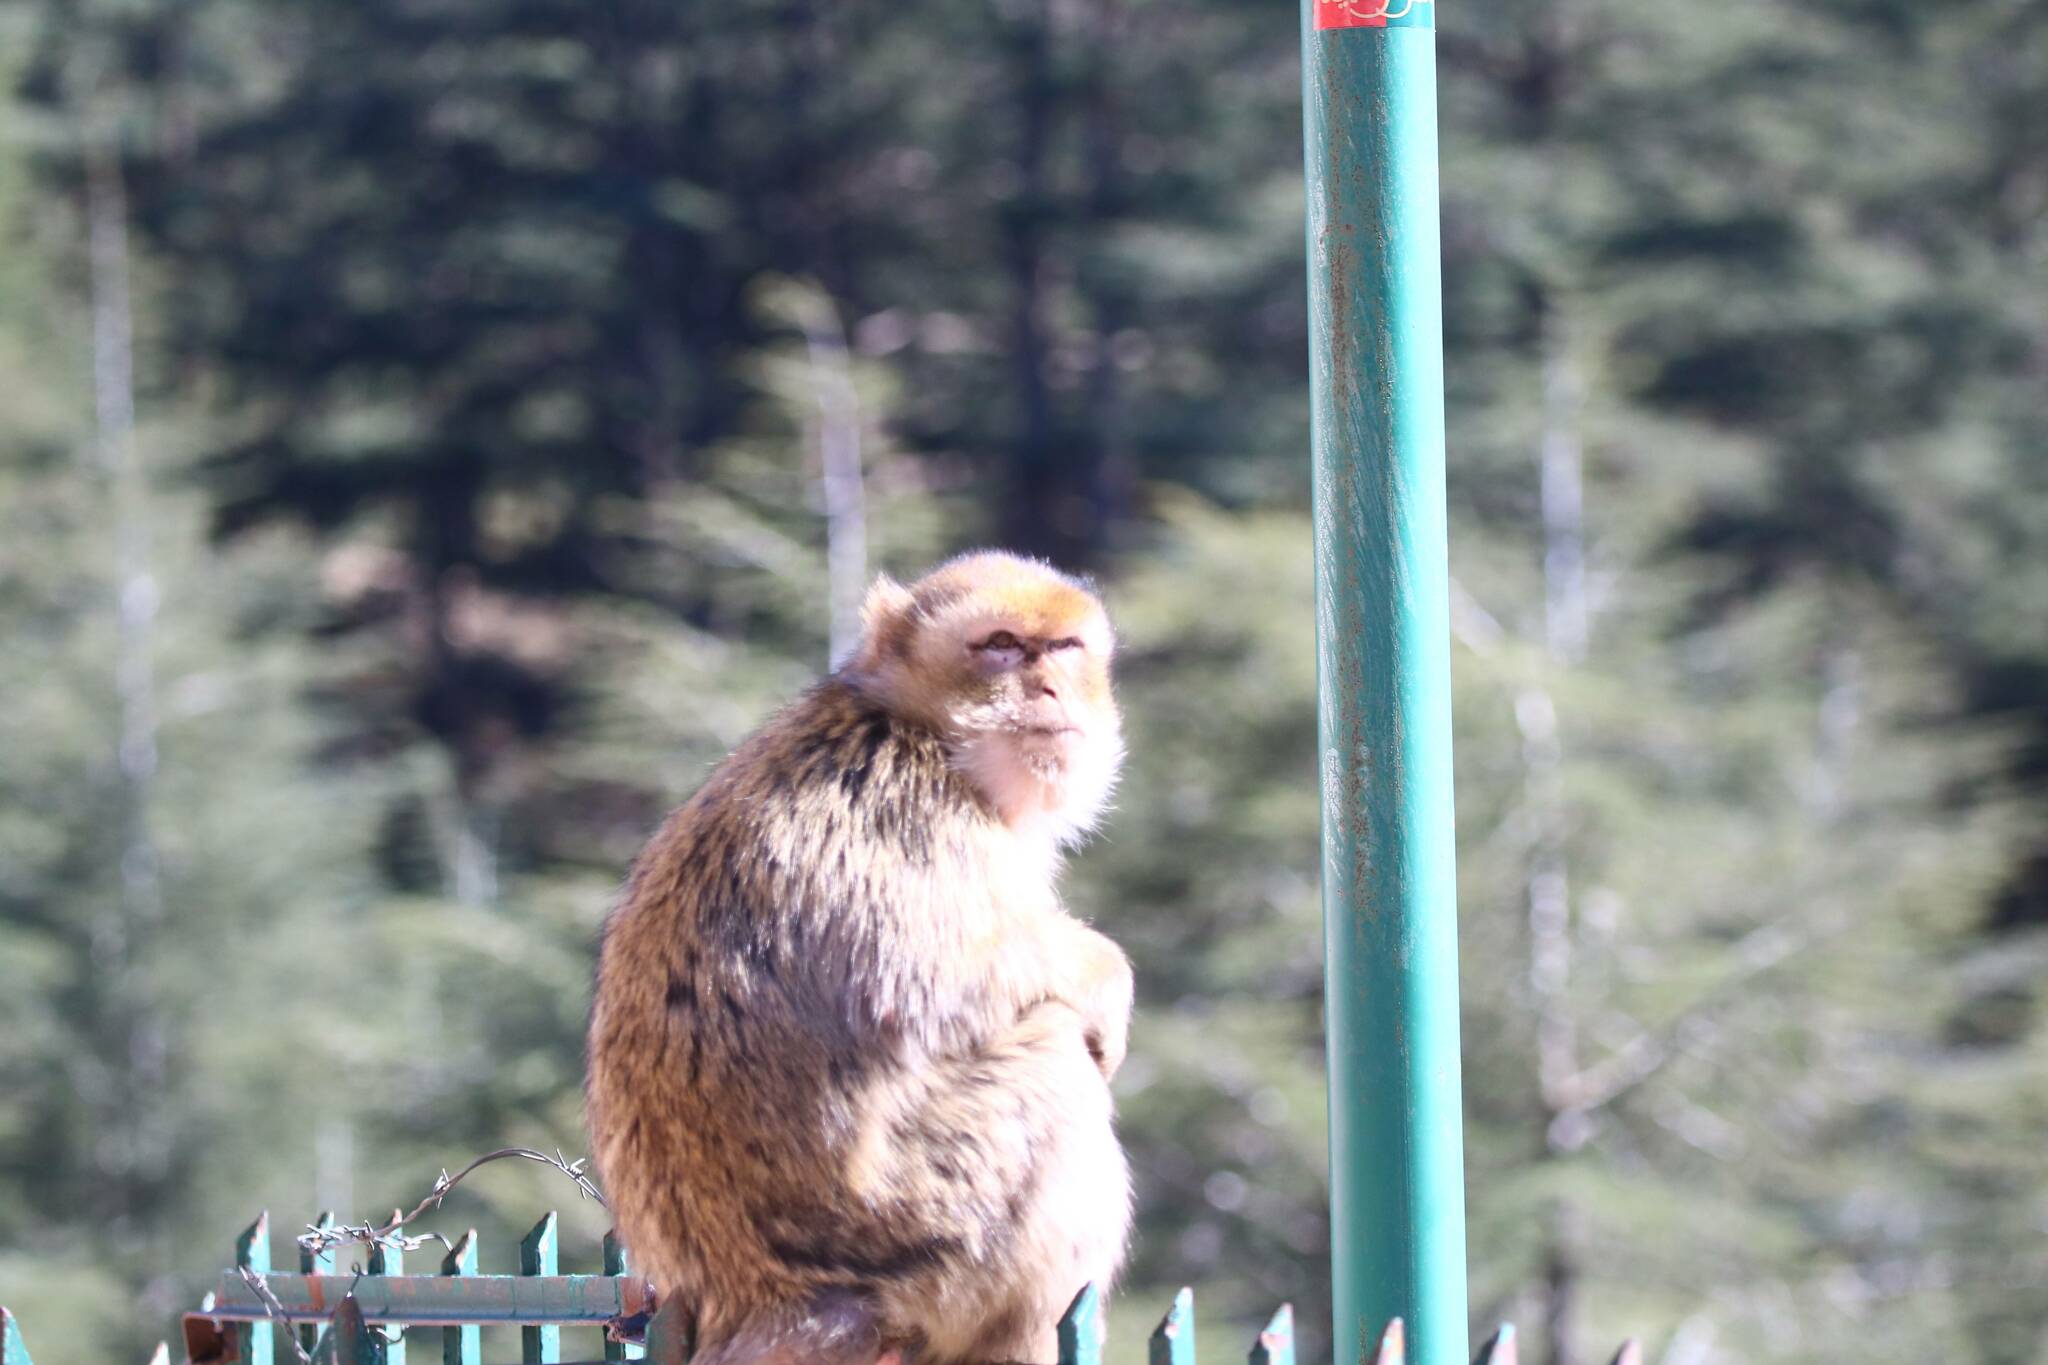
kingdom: Animalia
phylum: Chordata
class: Mammalia
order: Primates
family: Cercopithecidae
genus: Macaca
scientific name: Macaca sylvanus
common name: Barbary macaque
